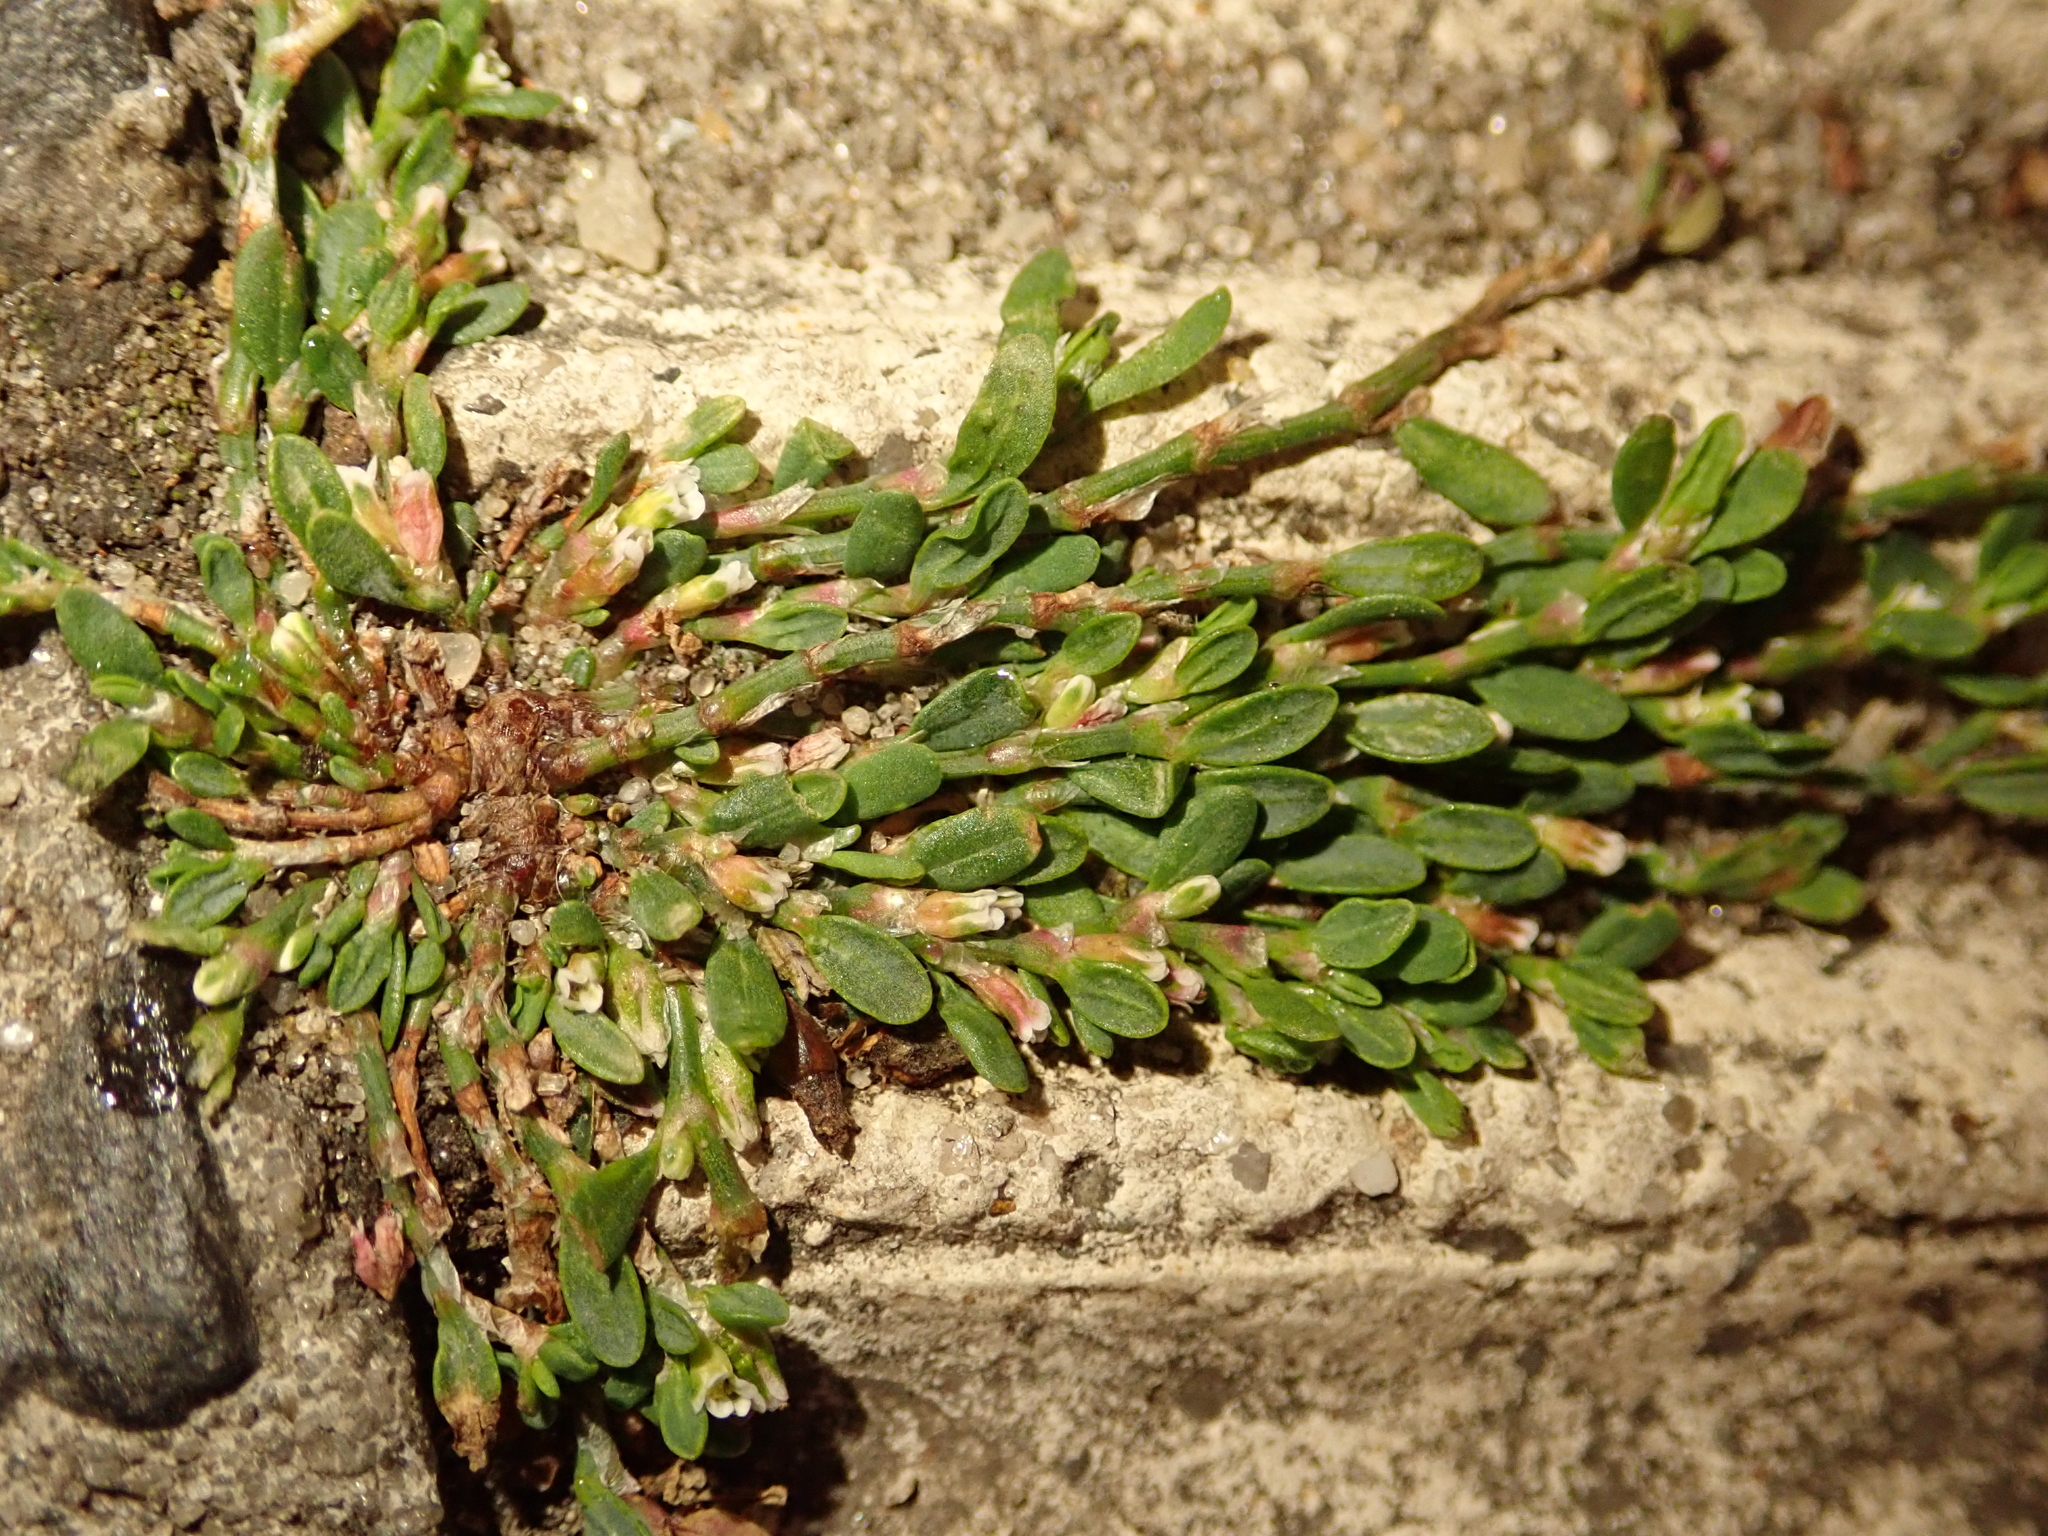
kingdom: Plantae
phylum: Tracheophyta
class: Magnoliopsida
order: Caryophyllales
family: Polygonaceae
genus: Polygonum
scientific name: Polygonum arenastrum
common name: Equal-leaved knotgrass
